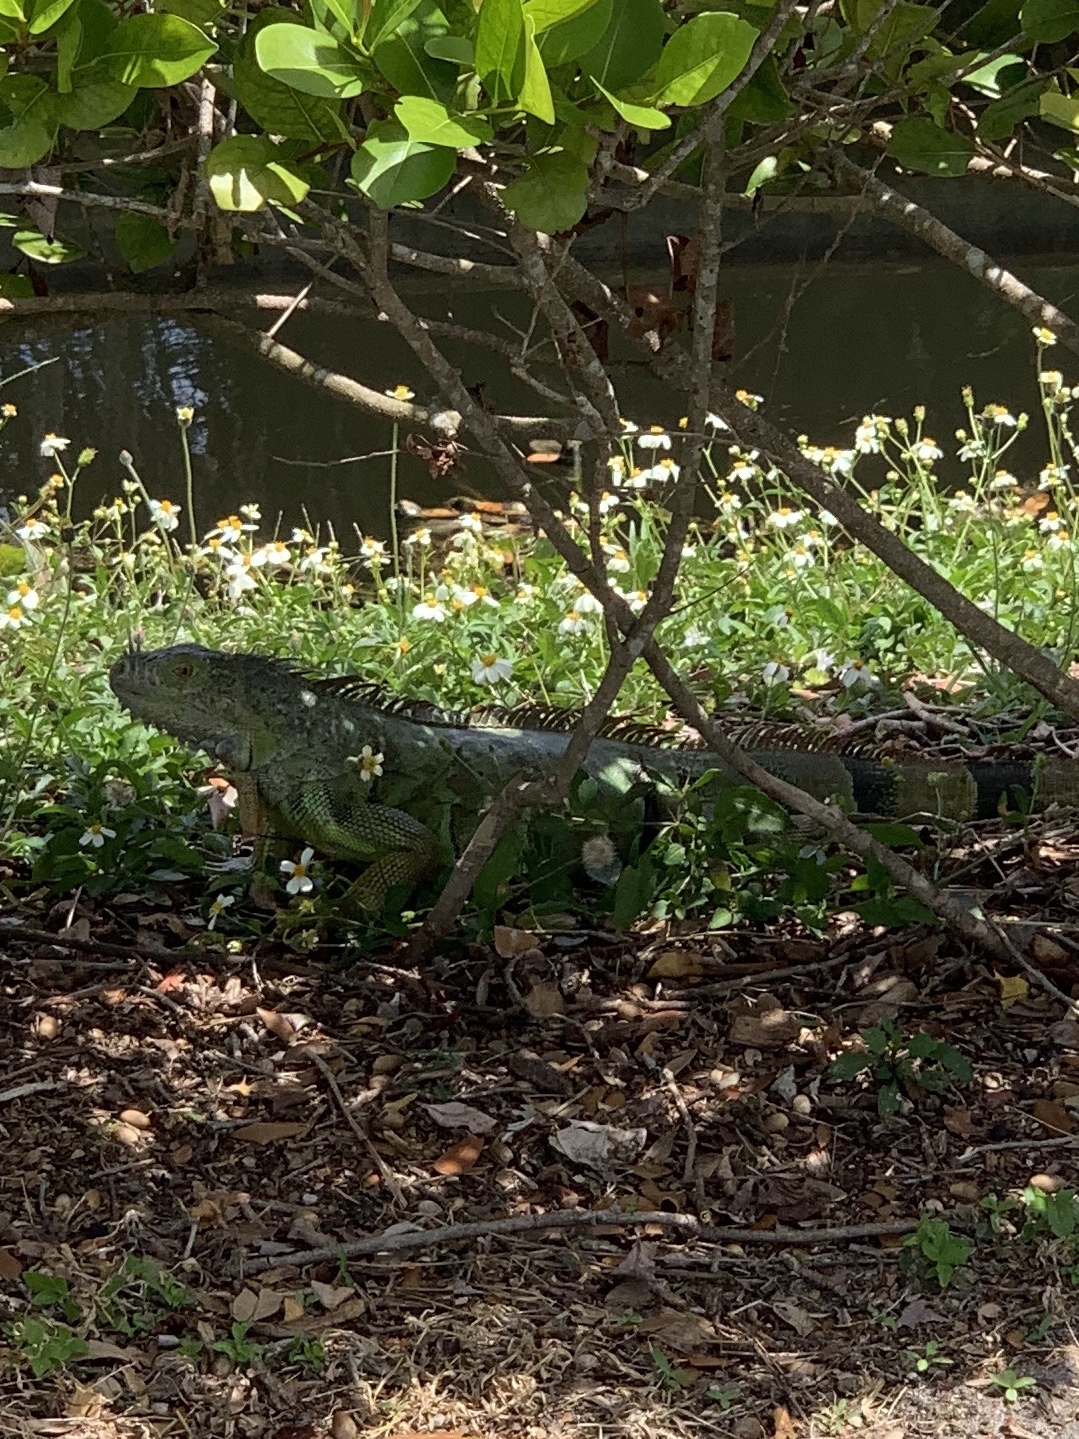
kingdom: Animalia
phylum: Chordata
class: Squamata
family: Iguanidae
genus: Iguana
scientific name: Iguana iguana
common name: Green iguana
